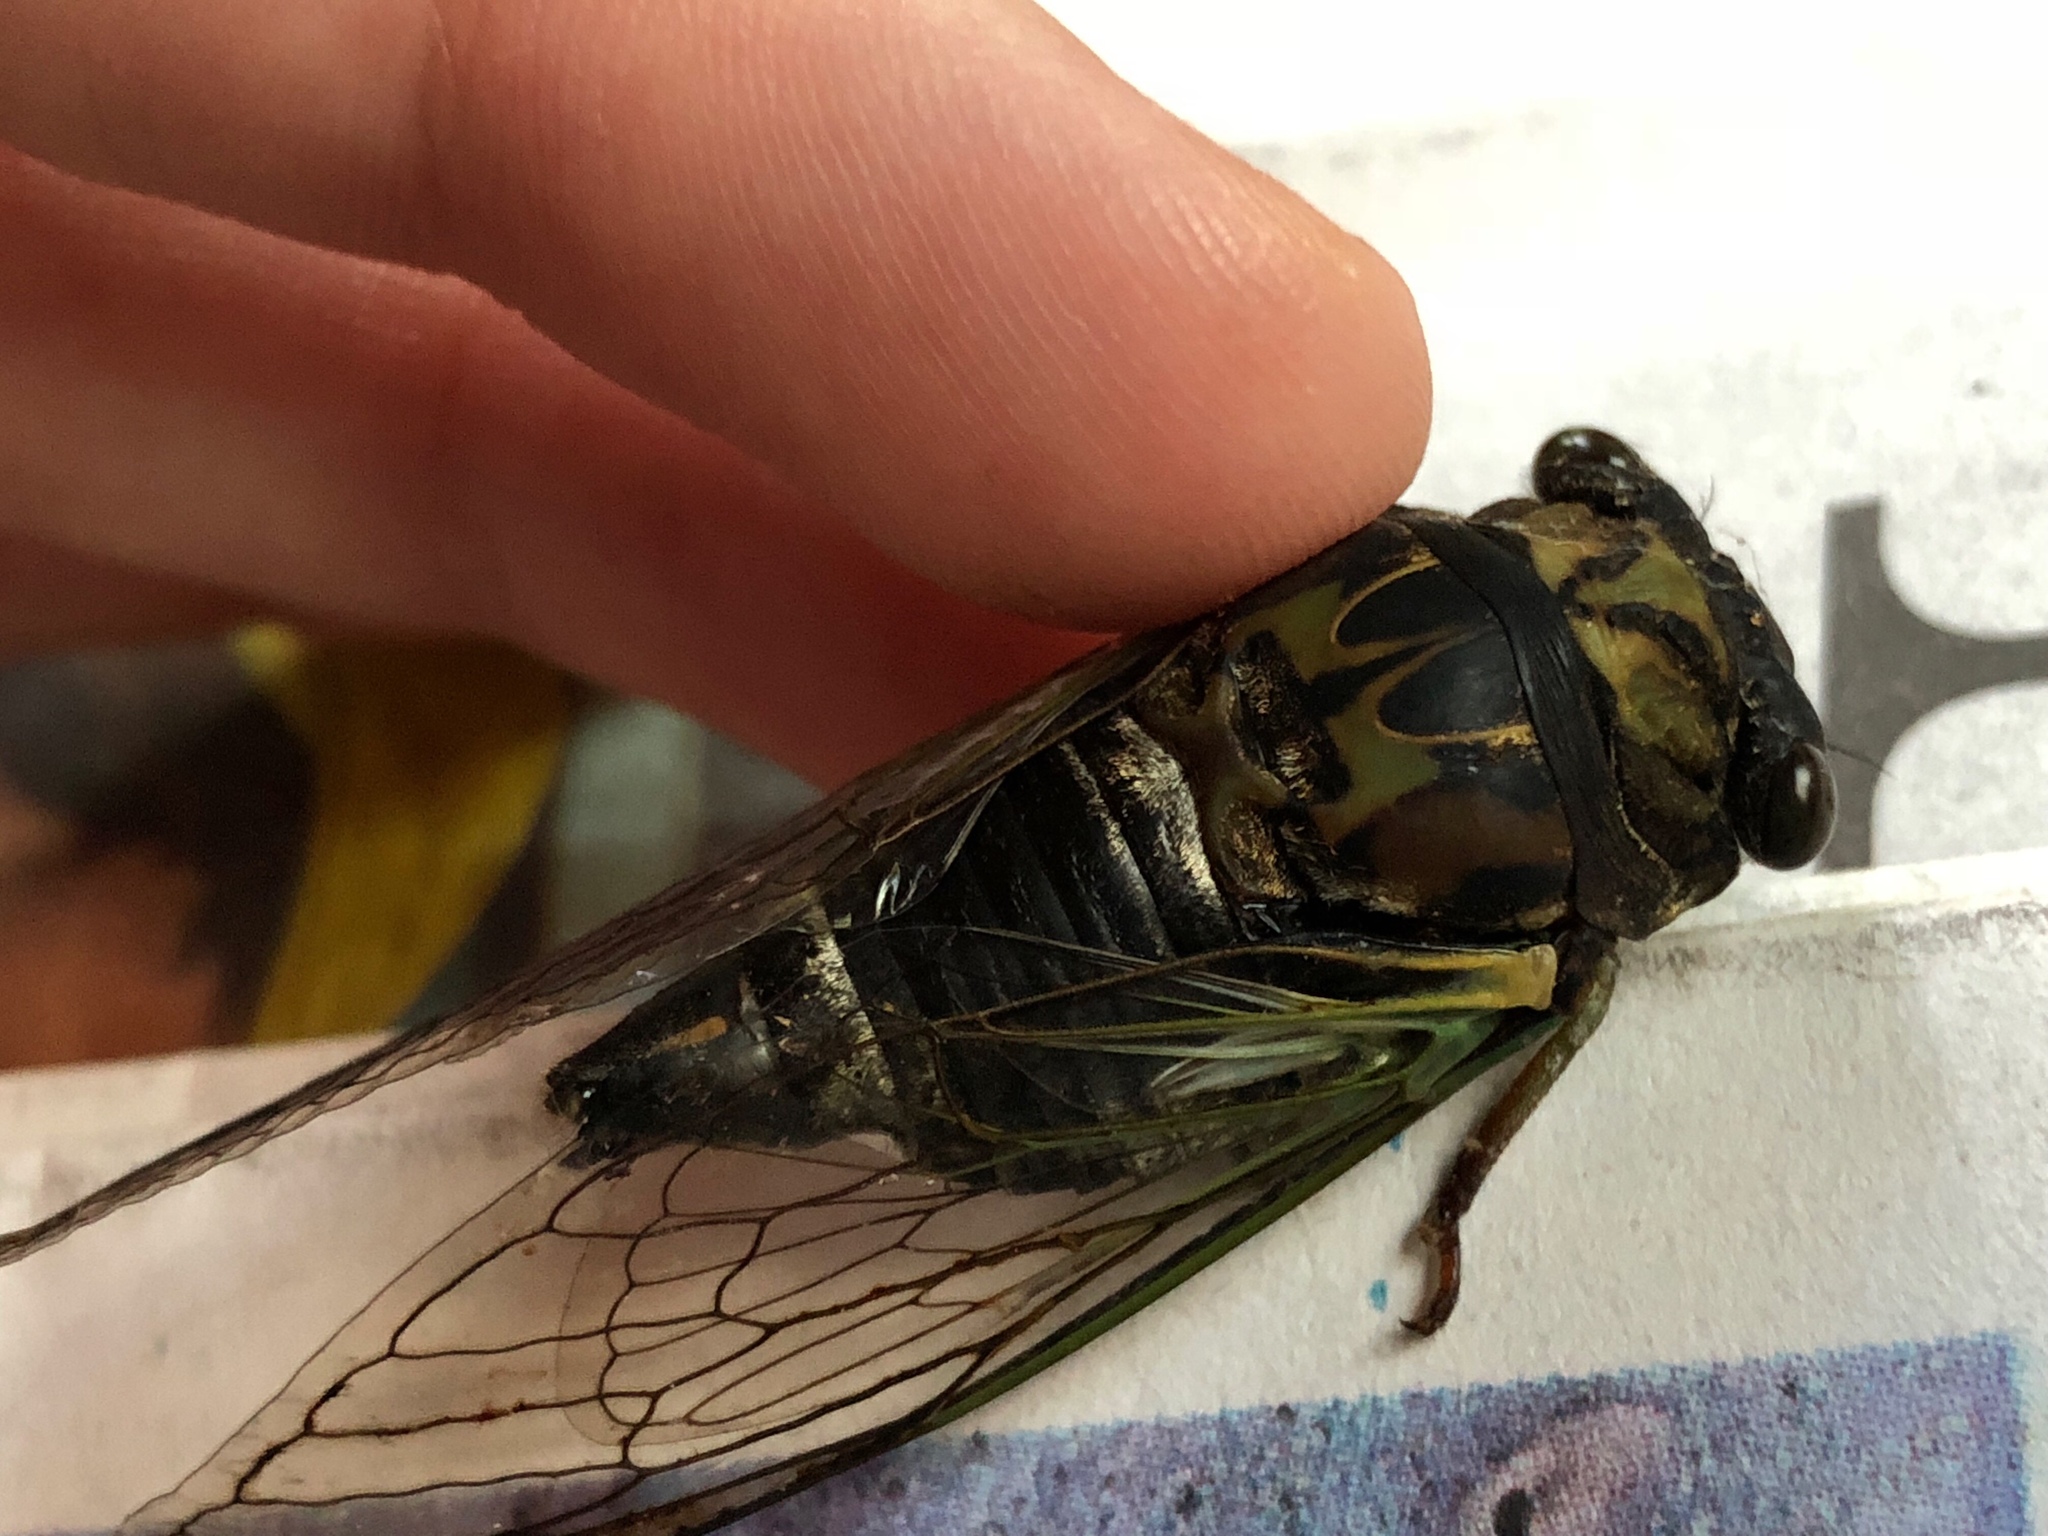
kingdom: Animalia
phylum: Arthropoda
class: Insecta
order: Hemiptera
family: Cicadidae
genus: Neotibicen
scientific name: Neotibicen lyricen
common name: Lyric cicada
